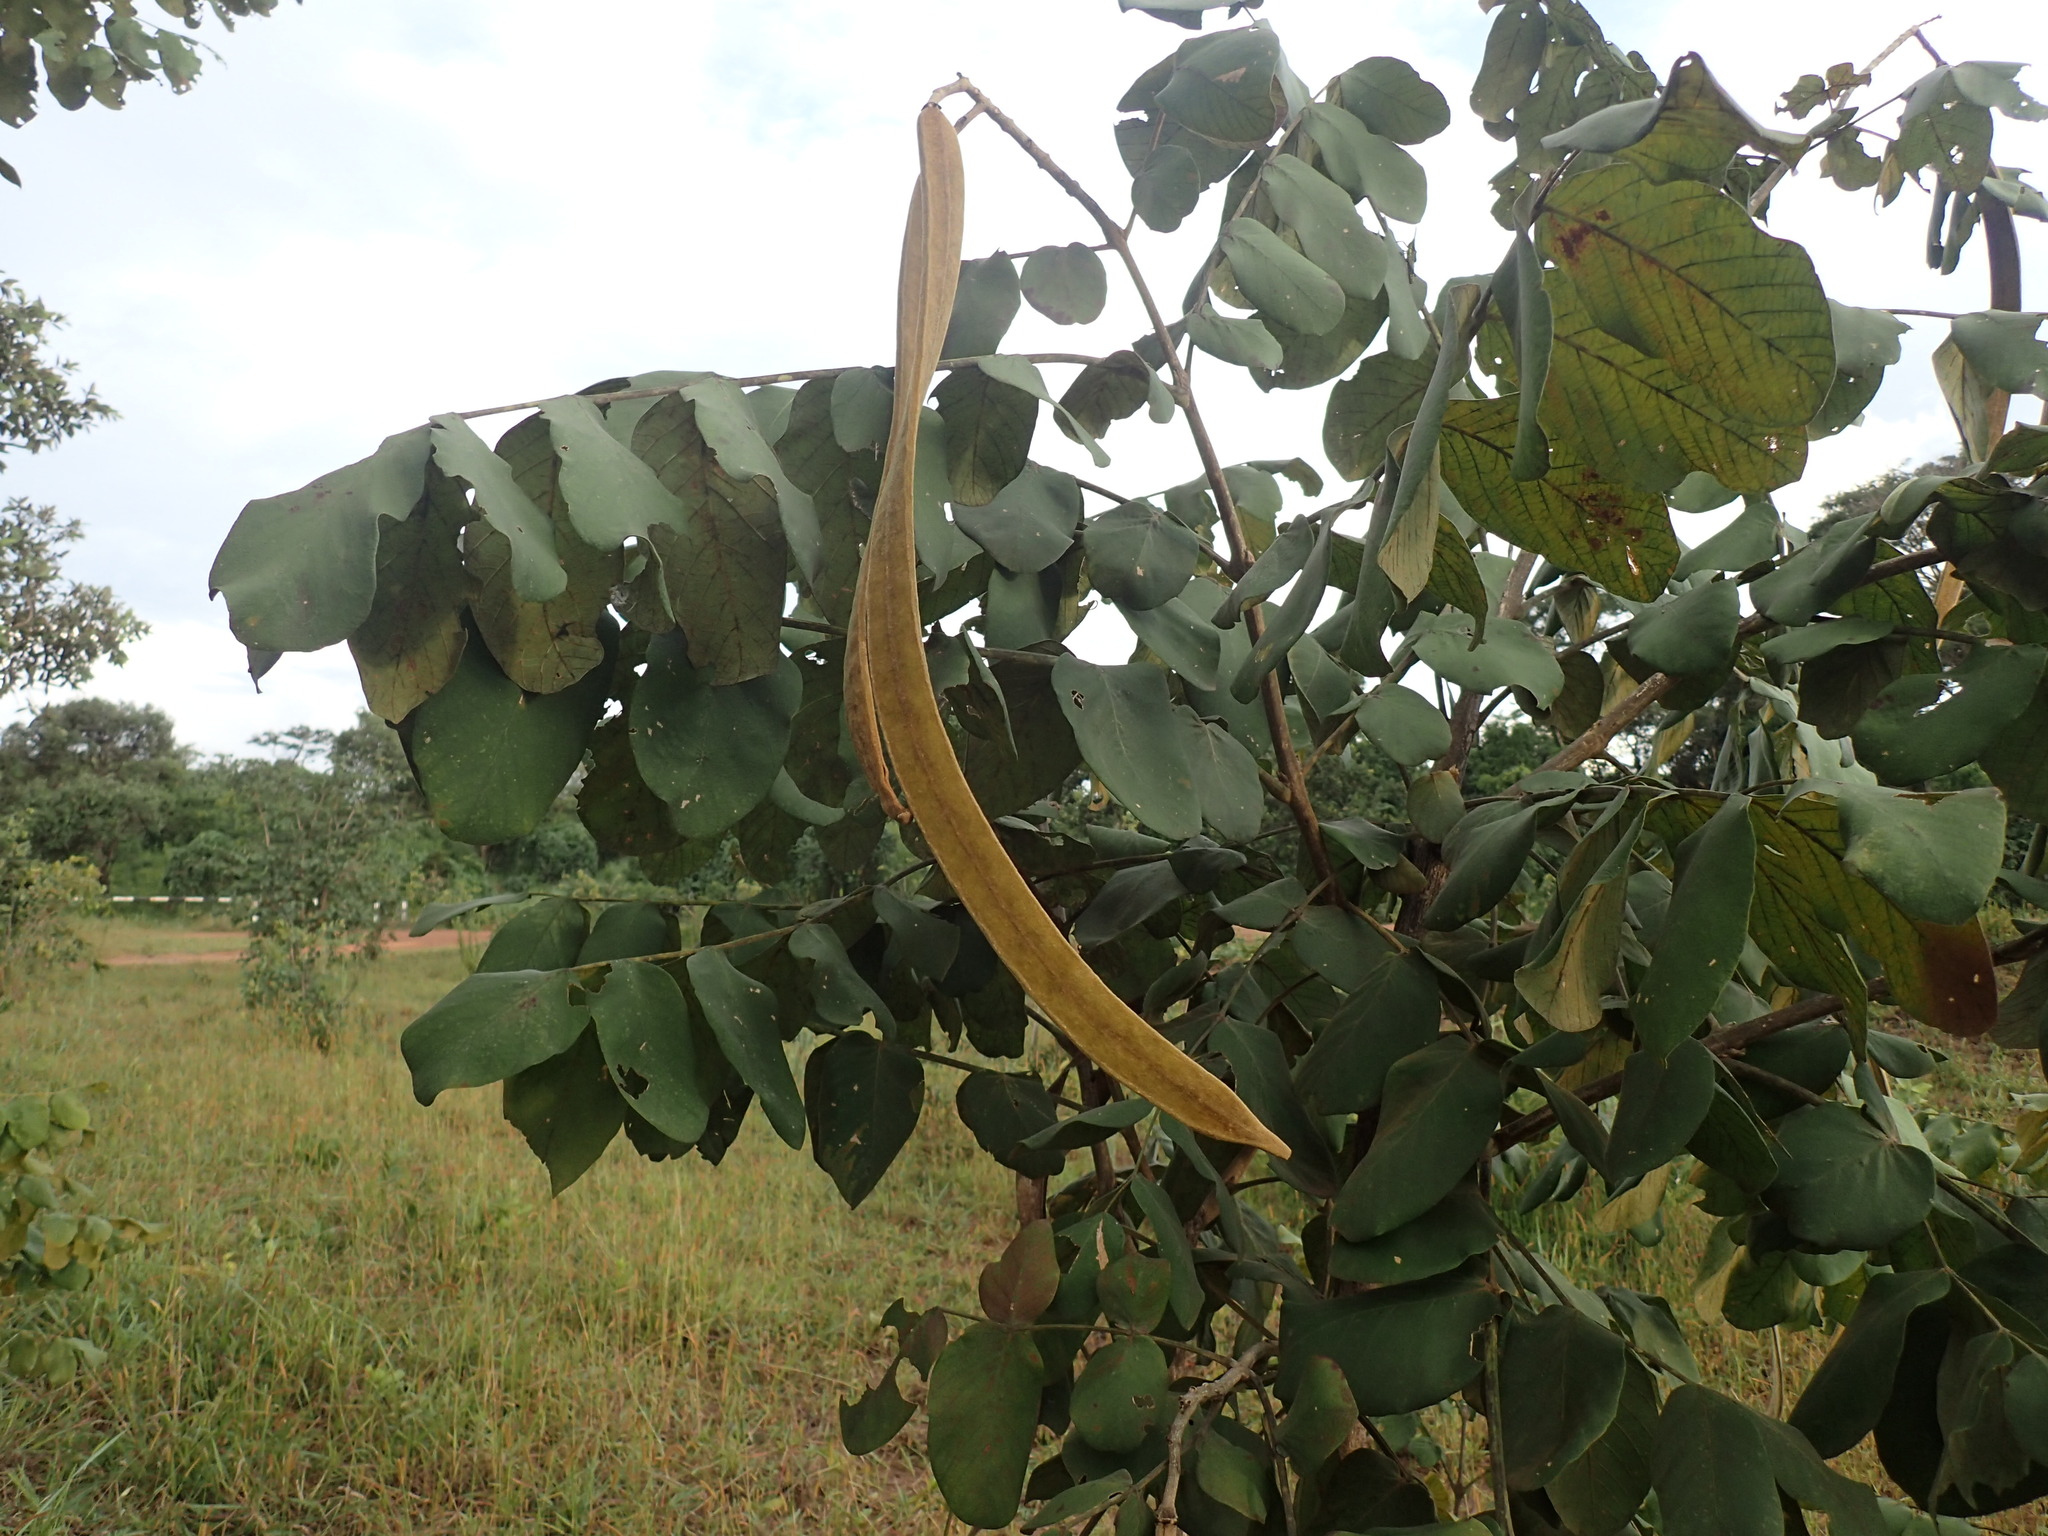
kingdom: Plantae
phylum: Tracheophyta
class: Magnoliopsida
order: Lamiales
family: Bignoniaceae
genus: Markhamia
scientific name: Markhamia obtusifolia
